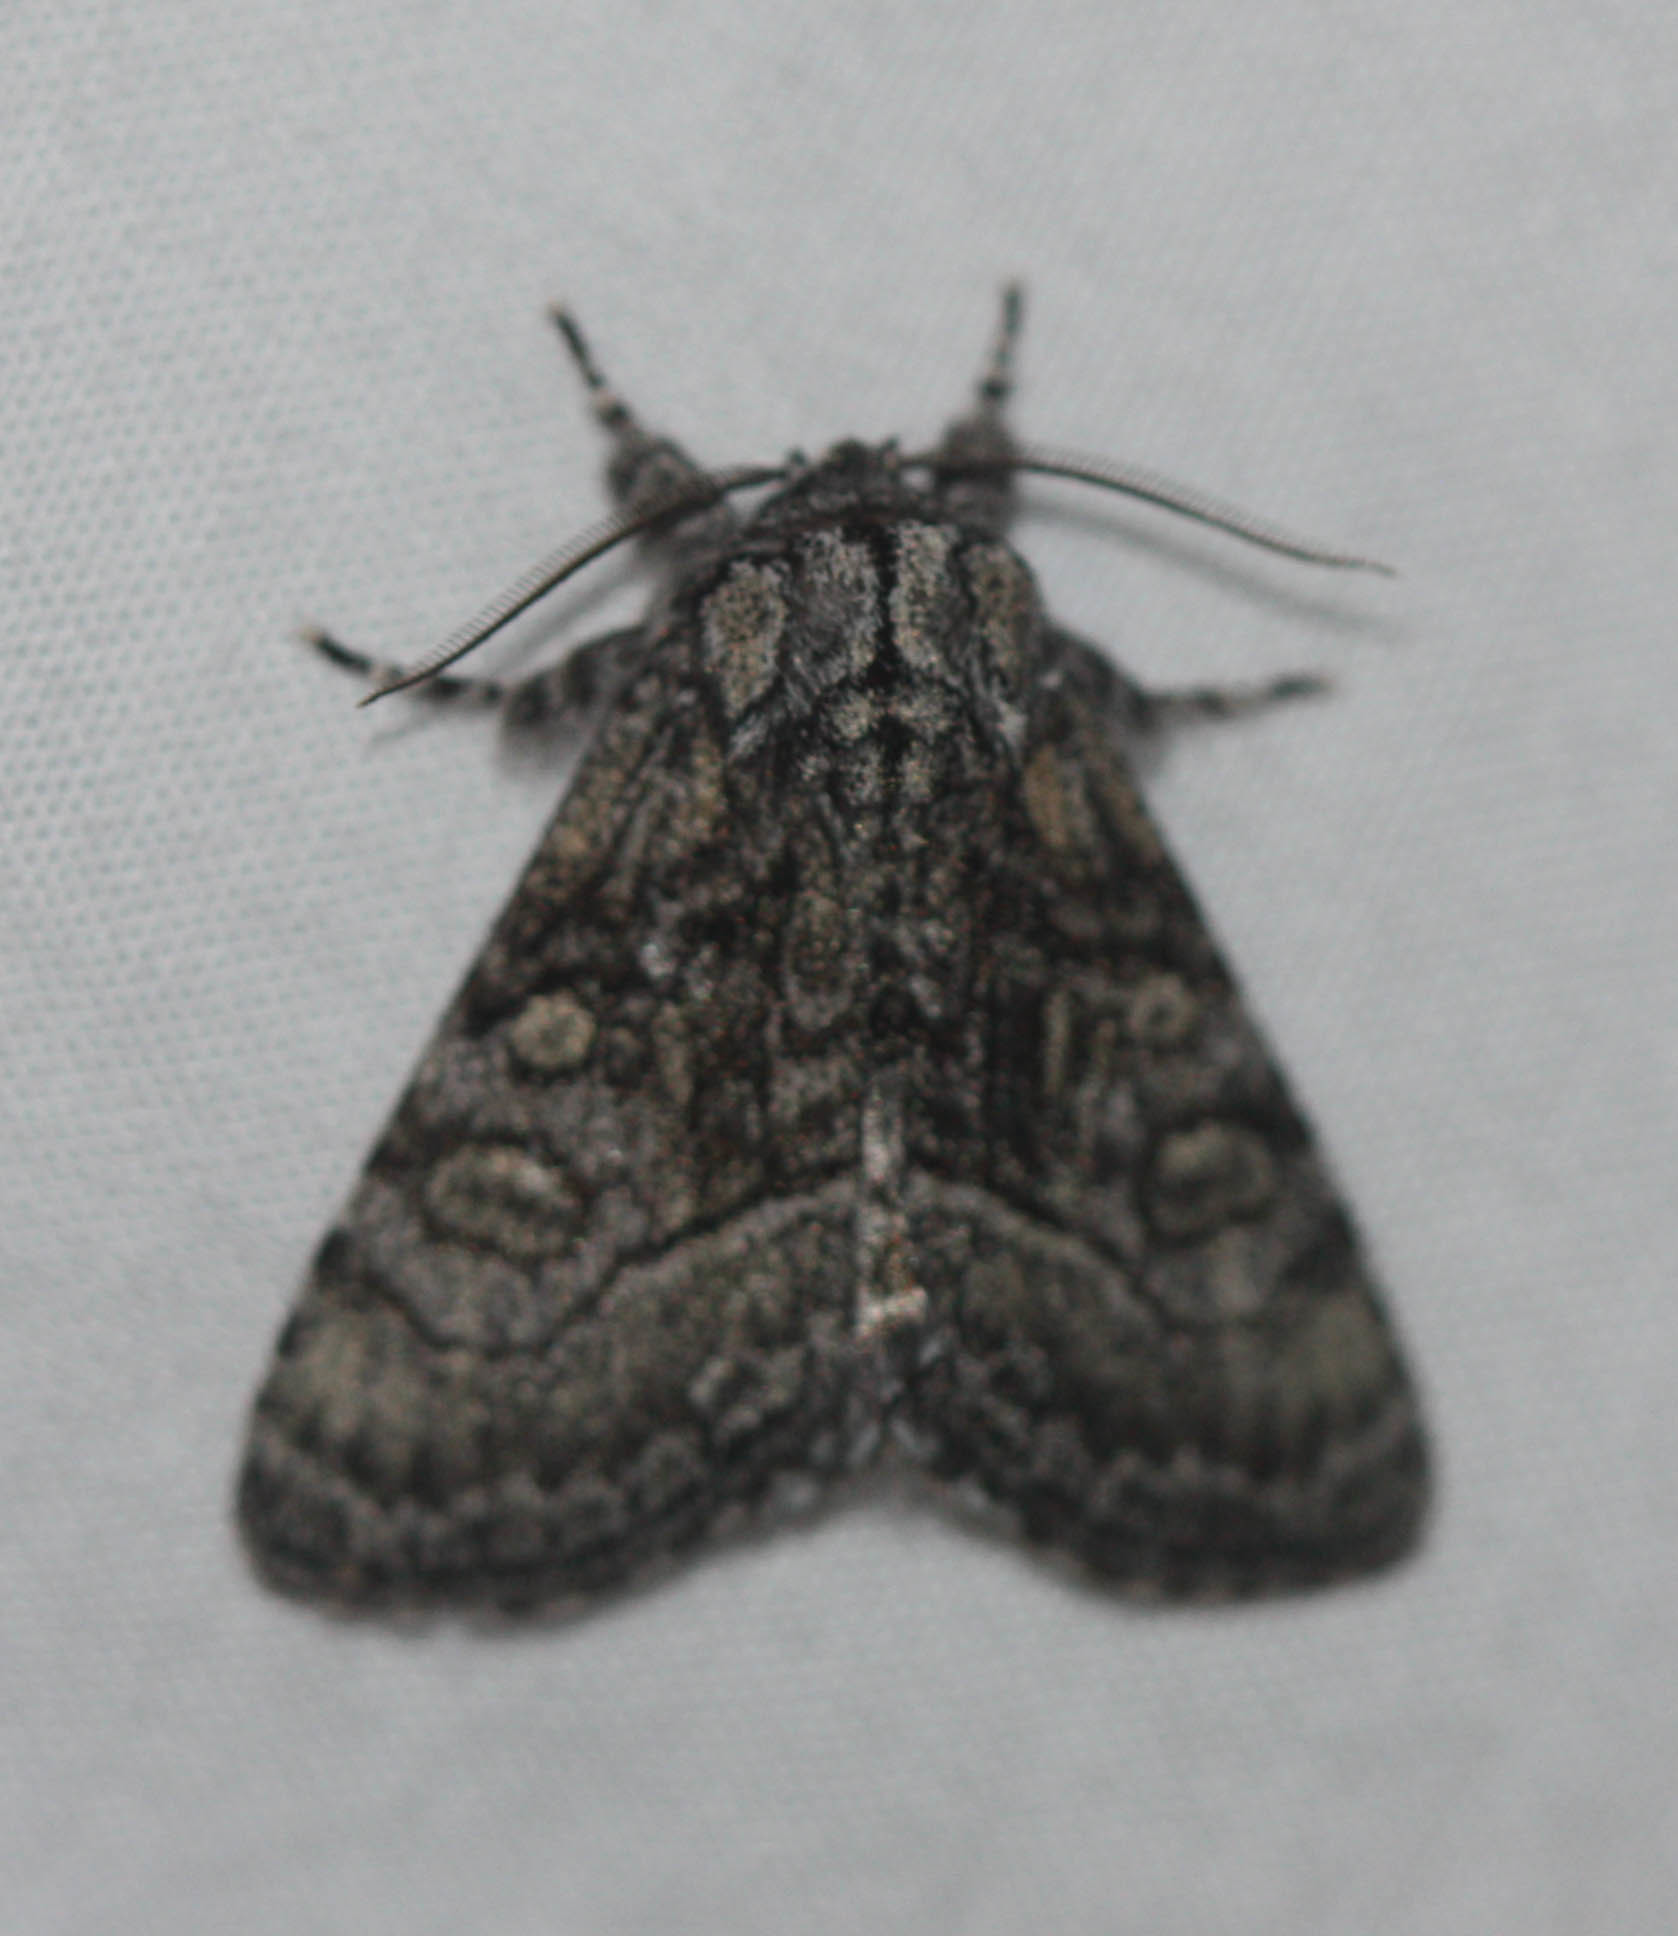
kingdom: Animalia
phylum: Arthropoda
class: Insecta
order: Lepidoptera
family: Noctuidae
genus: Raphia
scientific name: Raphia frater
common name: Brother
